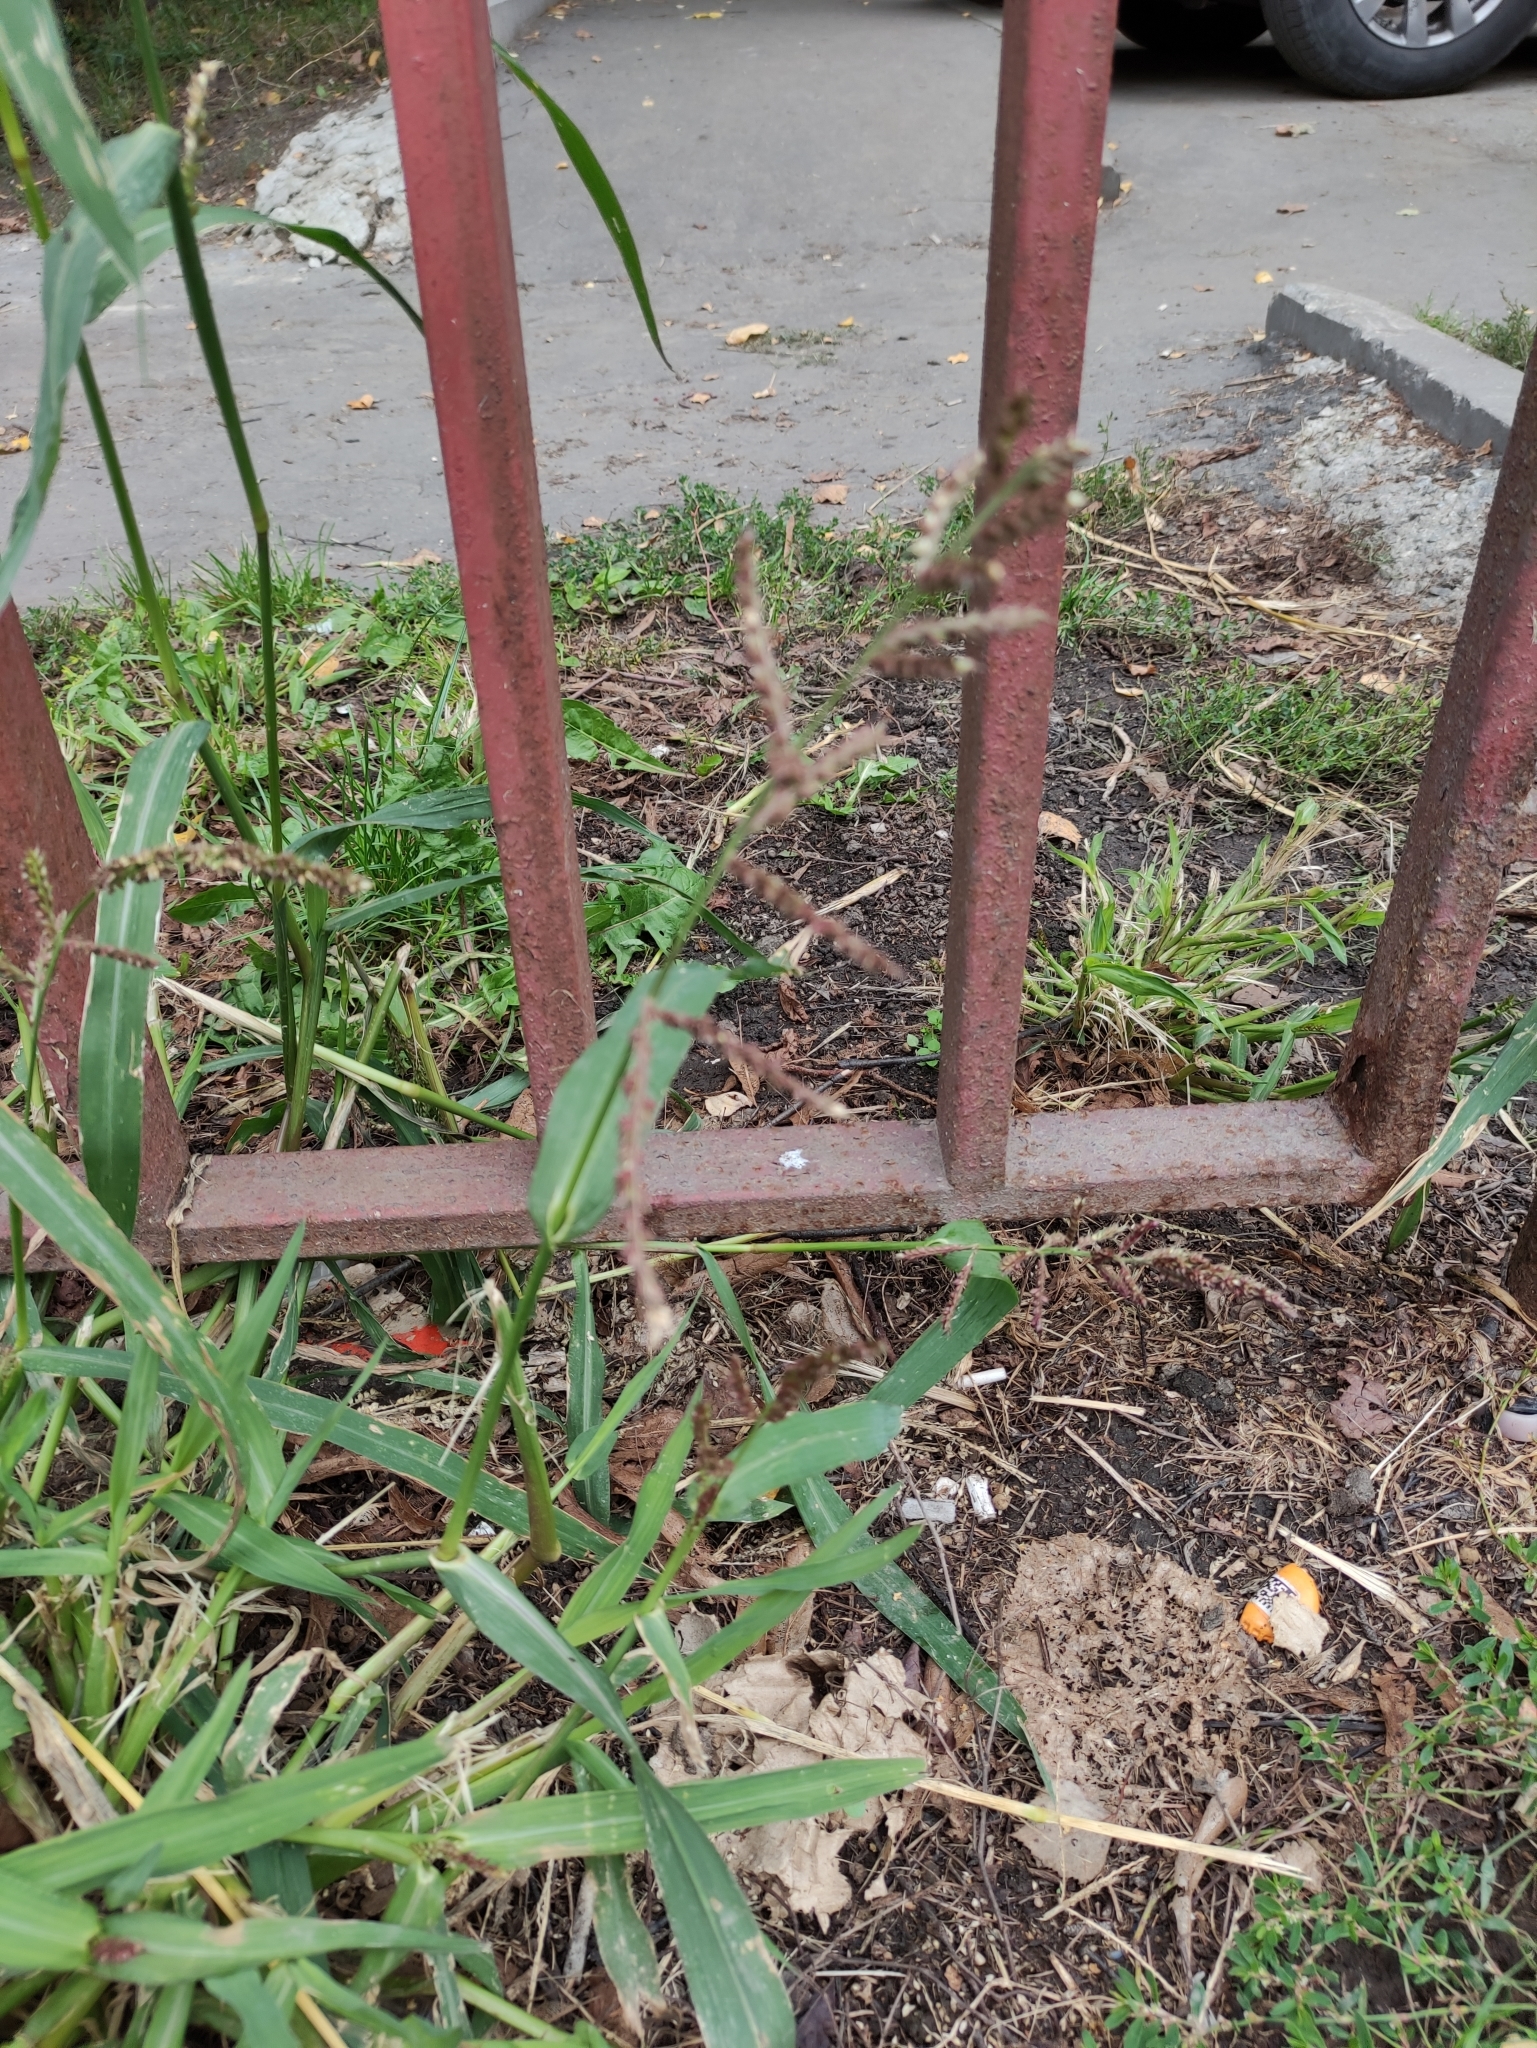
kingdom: Plantae
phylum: Tracheophyta
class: Liliopsida
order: Poales
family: Poaceae
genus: Echinochloa
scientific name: Echinochloa crus-galli
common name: Cockspur
